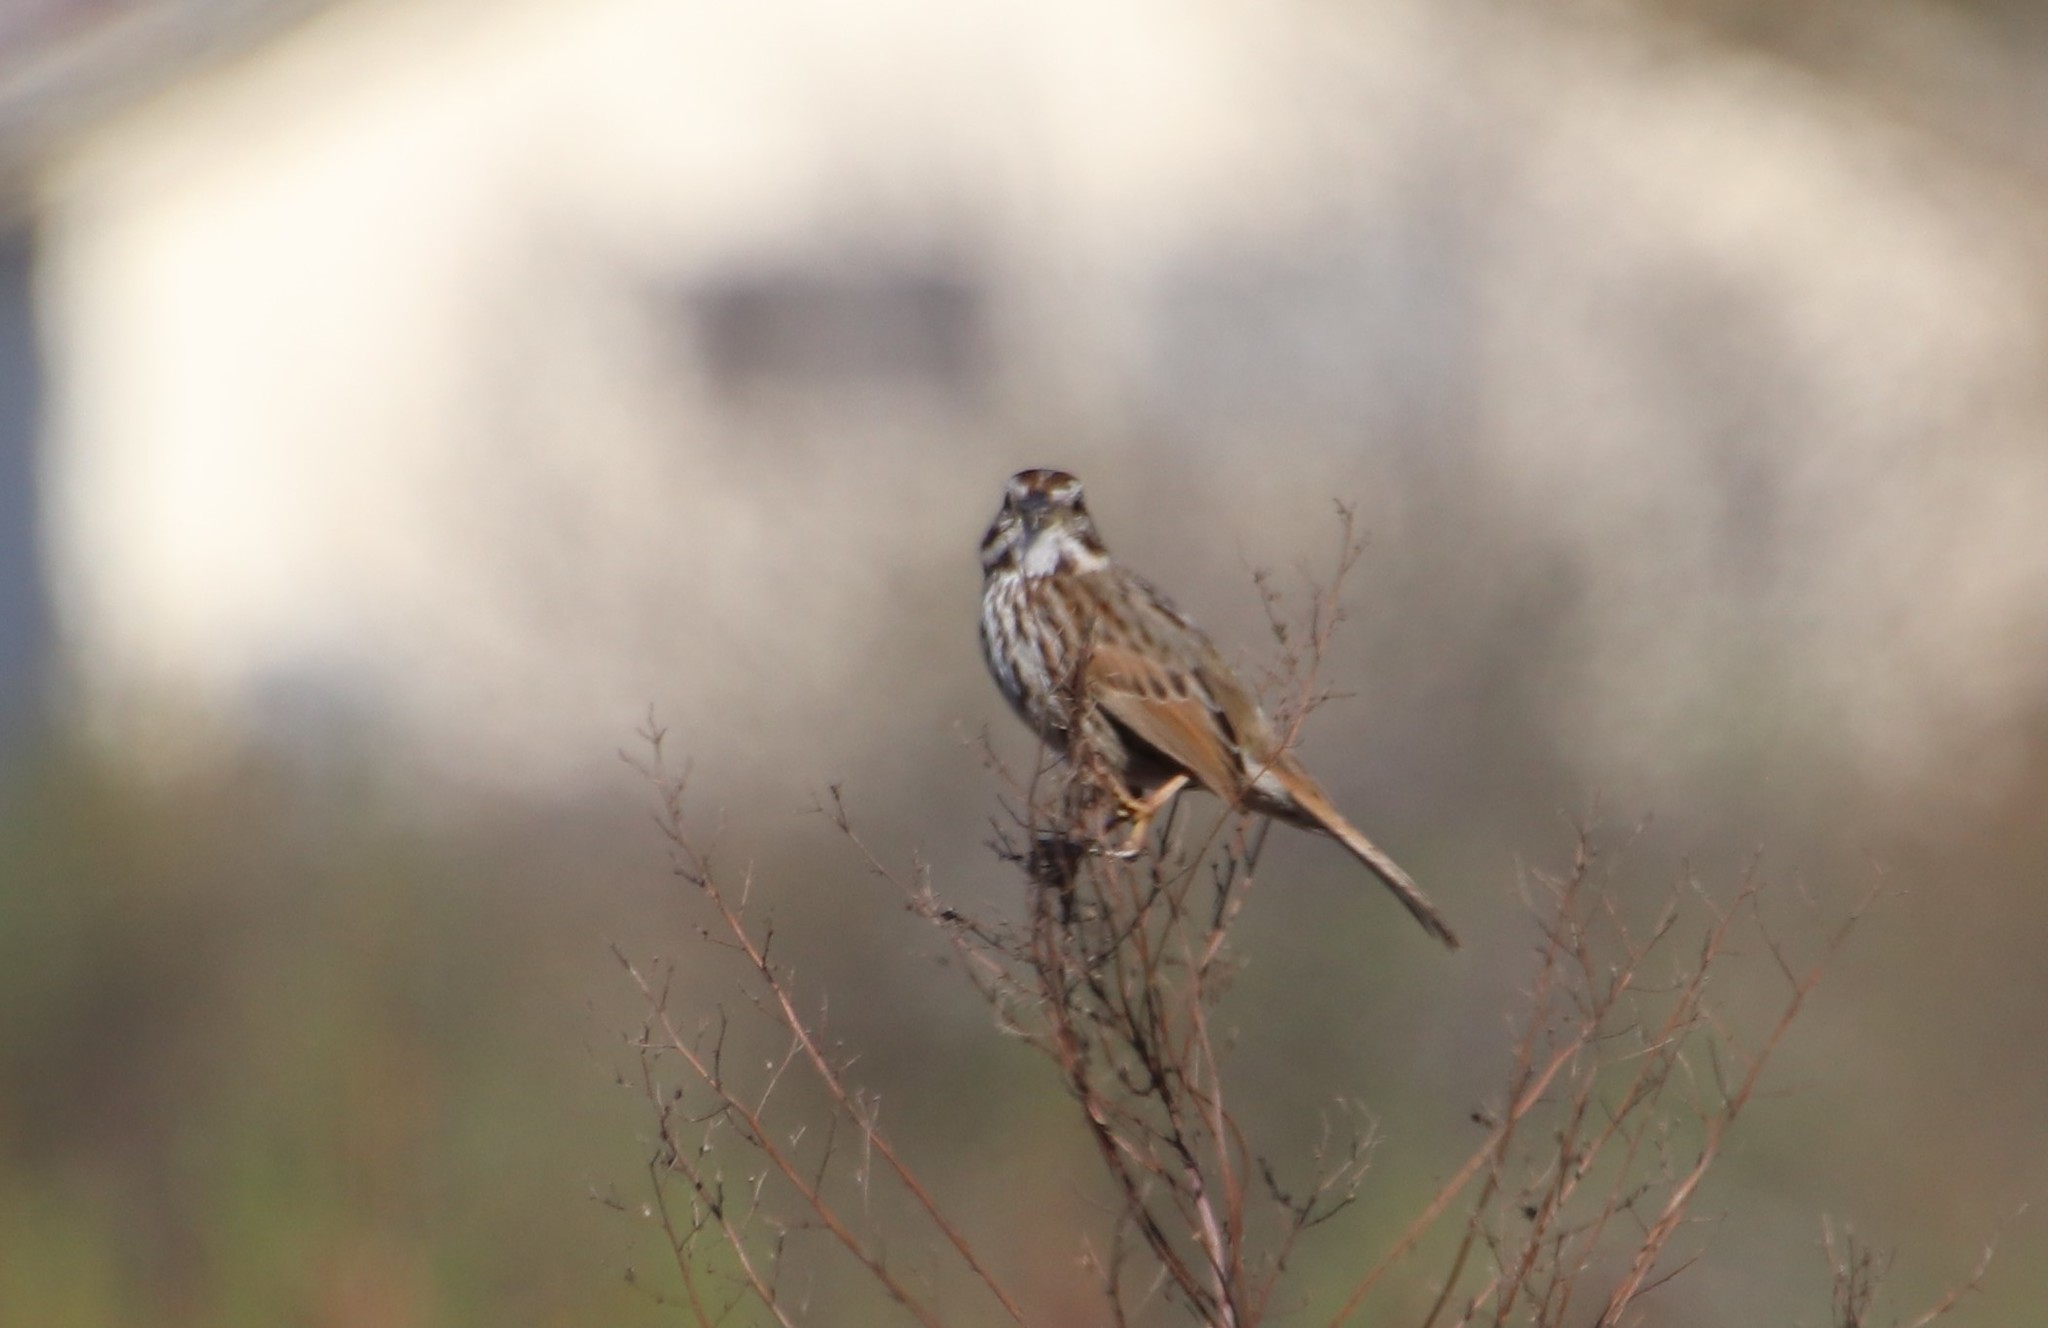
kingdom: Animalia
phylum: Chordata
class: Aves
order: Passeriformes
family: Passerellidae
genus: Melospiza
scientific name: Melospiza melodia
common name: Song sparrow
